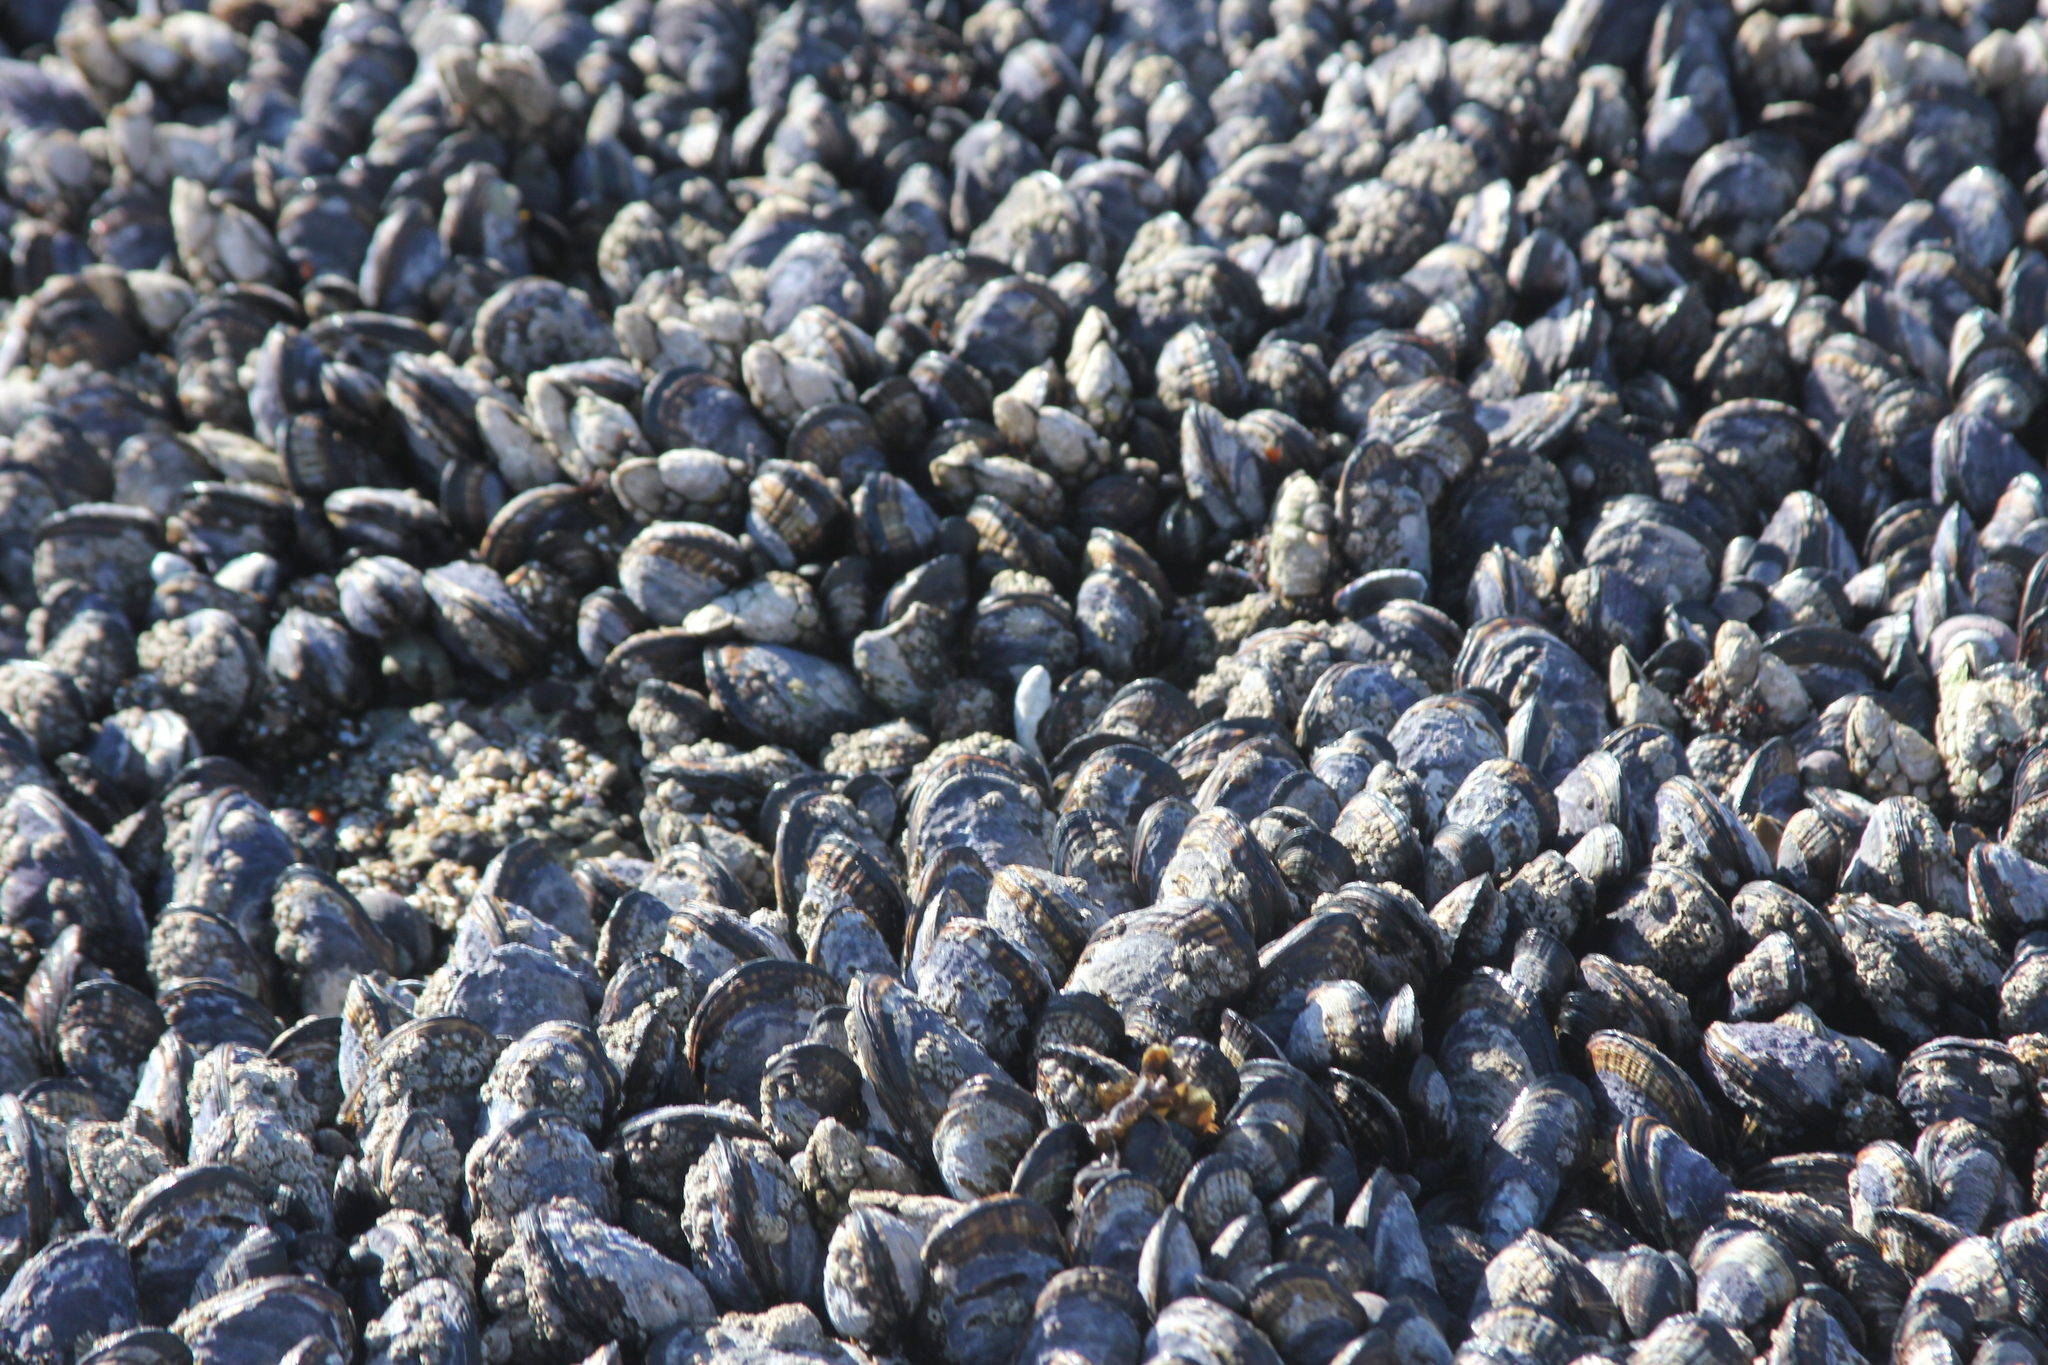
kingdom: Animalia
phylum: Mollusca
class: Bivalvia
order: Mytilida
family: Mytilidae
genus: Mytilus
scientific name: Mytilus californianus
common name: California mussel
